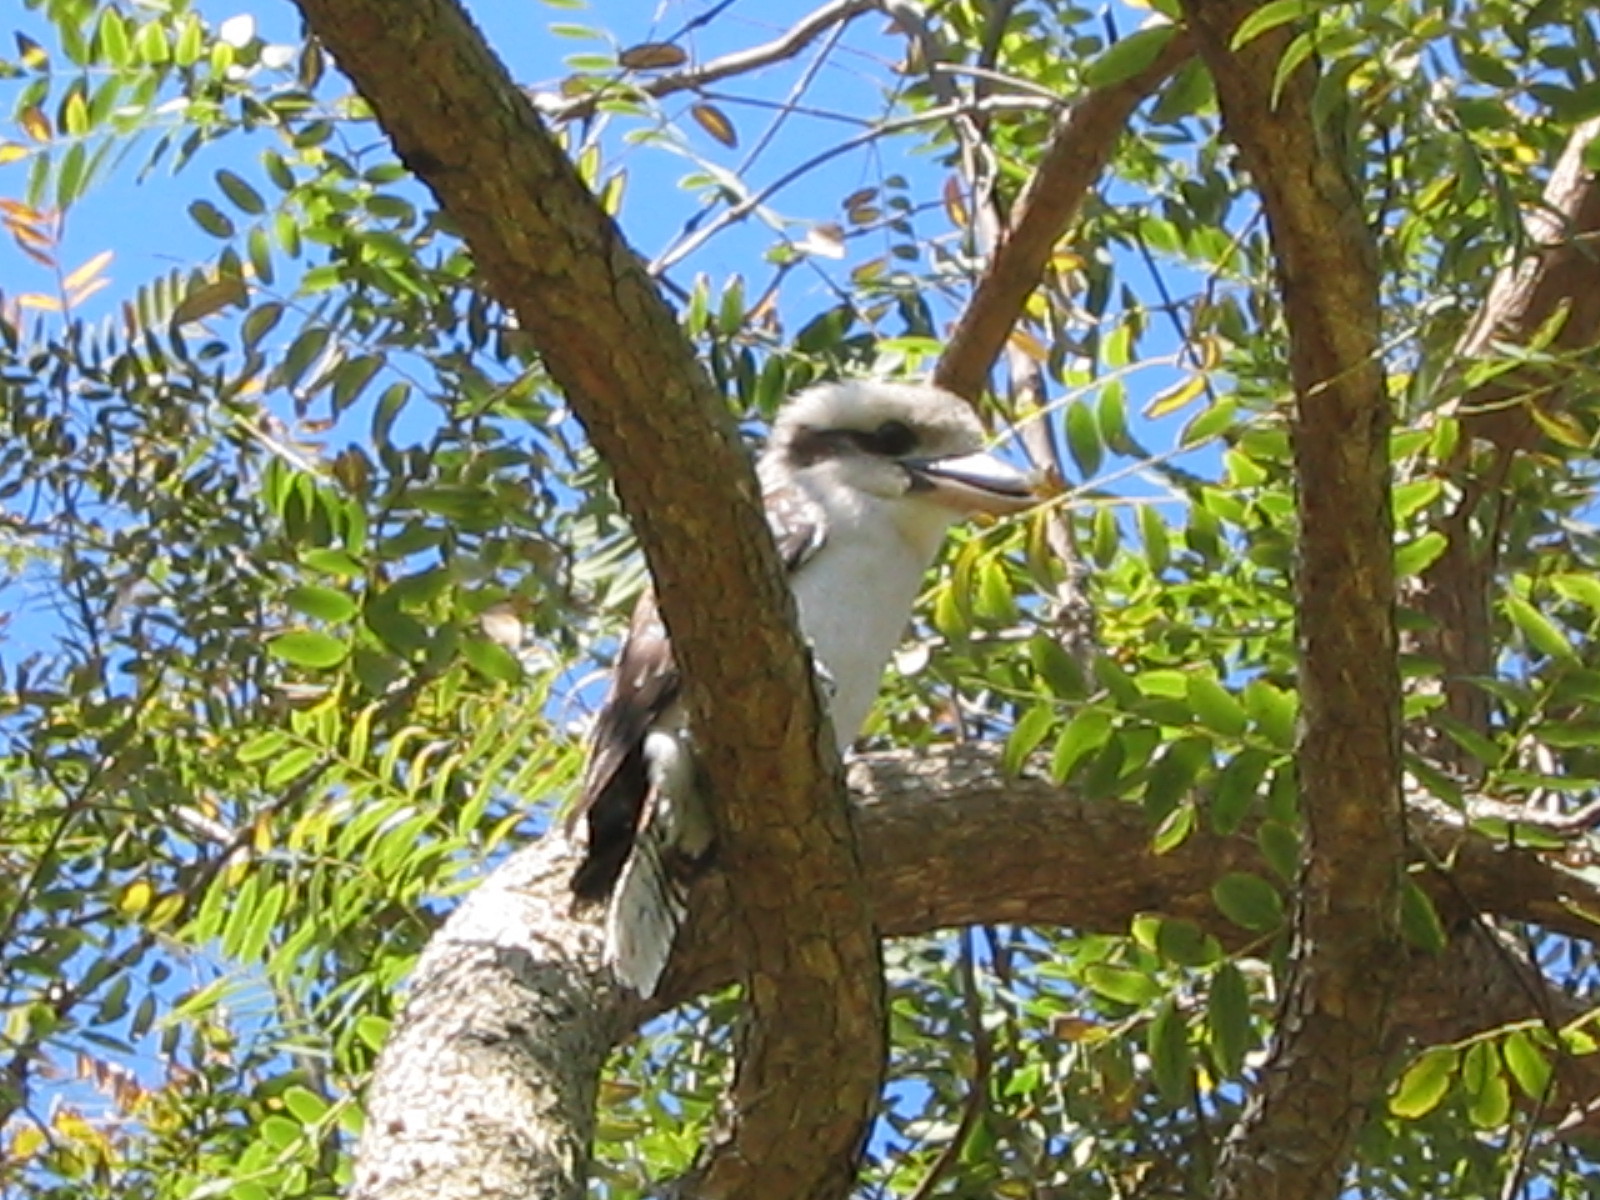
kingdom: Animalia
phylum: Chordata
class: Aves
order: Coraciiformes
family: Alcedinidae
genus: Dacelo
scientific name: Dacelo novaeguineae
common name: Laughing kookaburra
